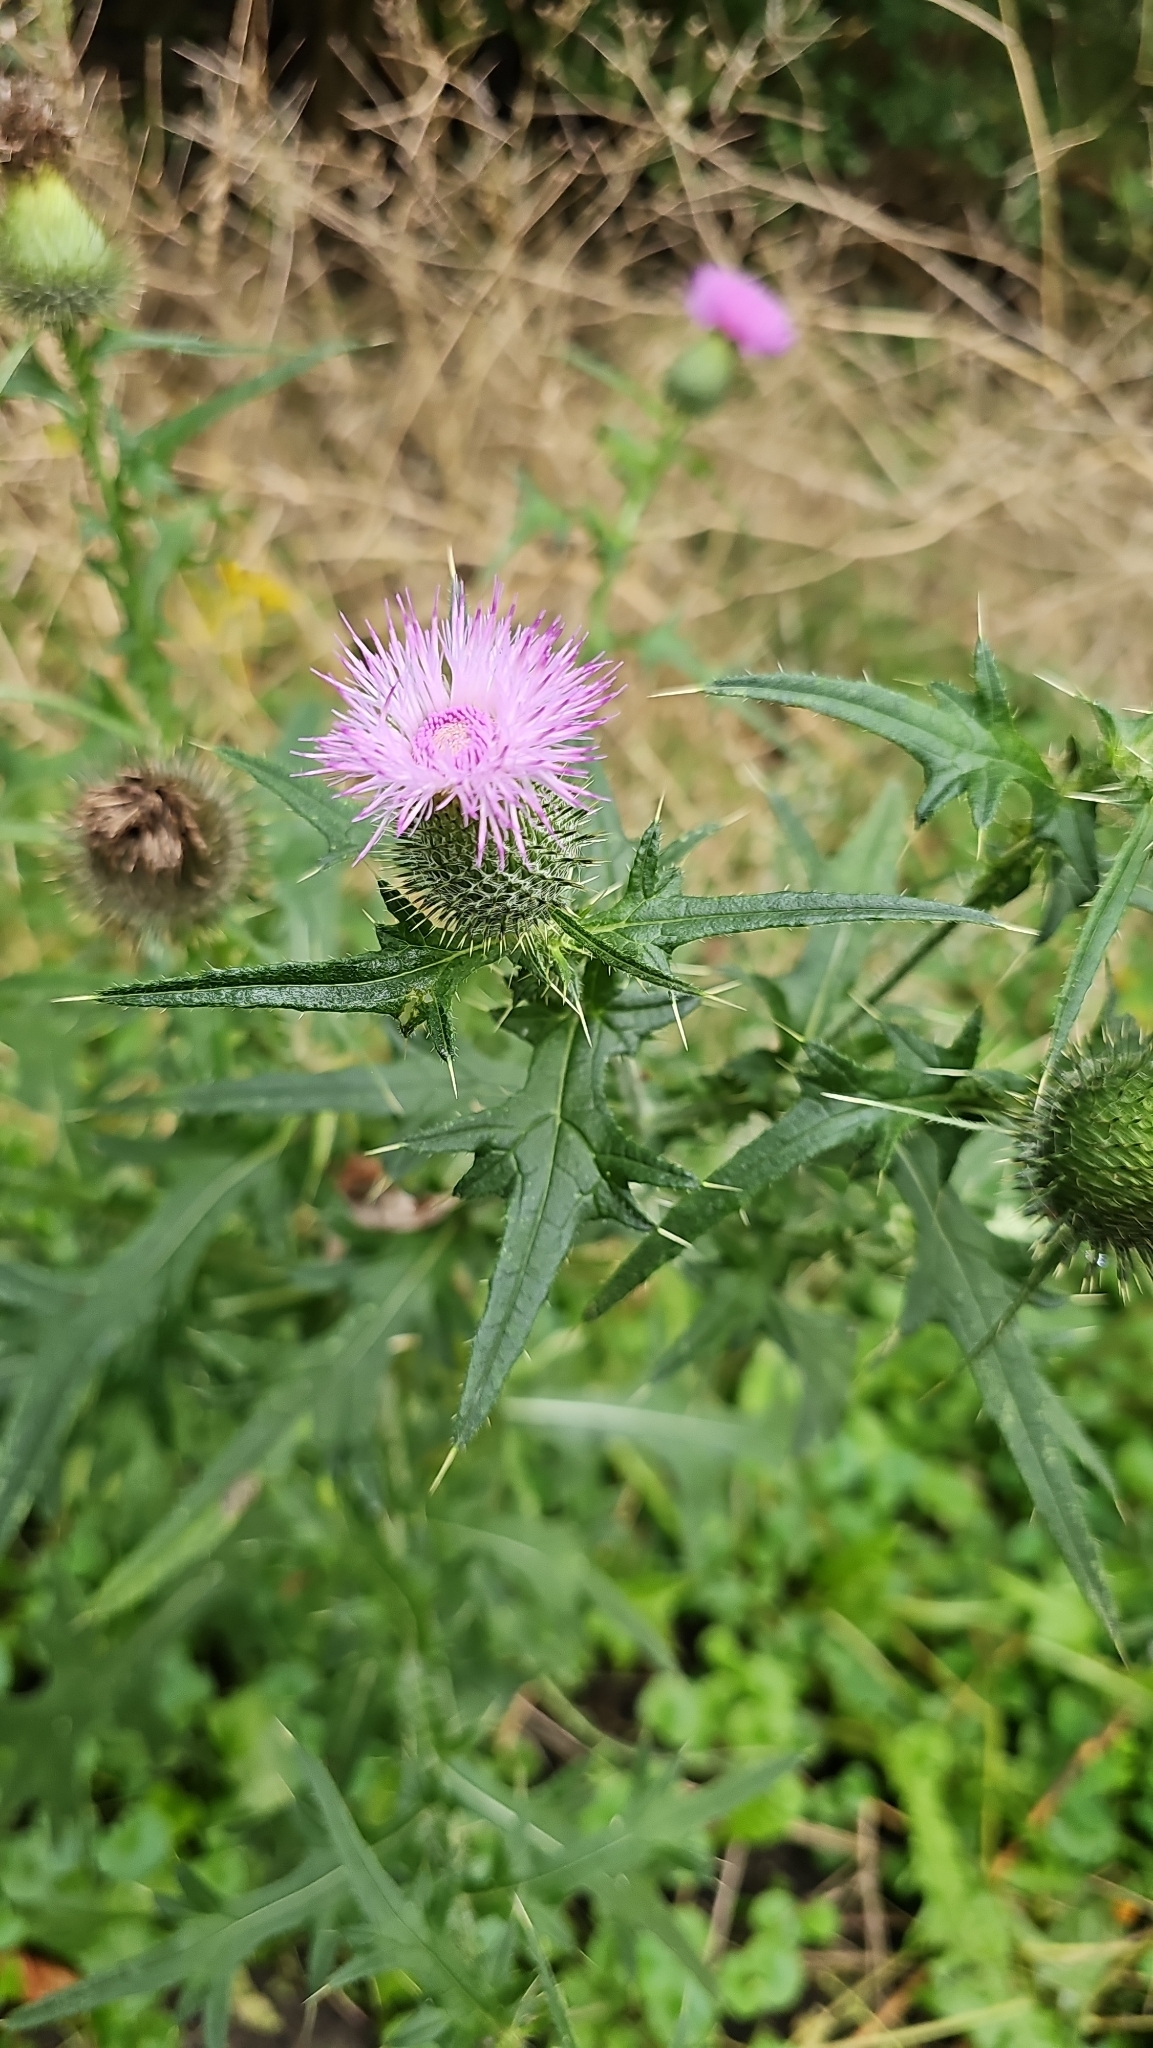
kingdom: Plantae
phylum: Tracheophyta
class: Magnoliopsida
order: Asterales
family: Asteraceae
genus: Cirsium
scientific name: Cirsium vulgare
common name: Bull thistle
